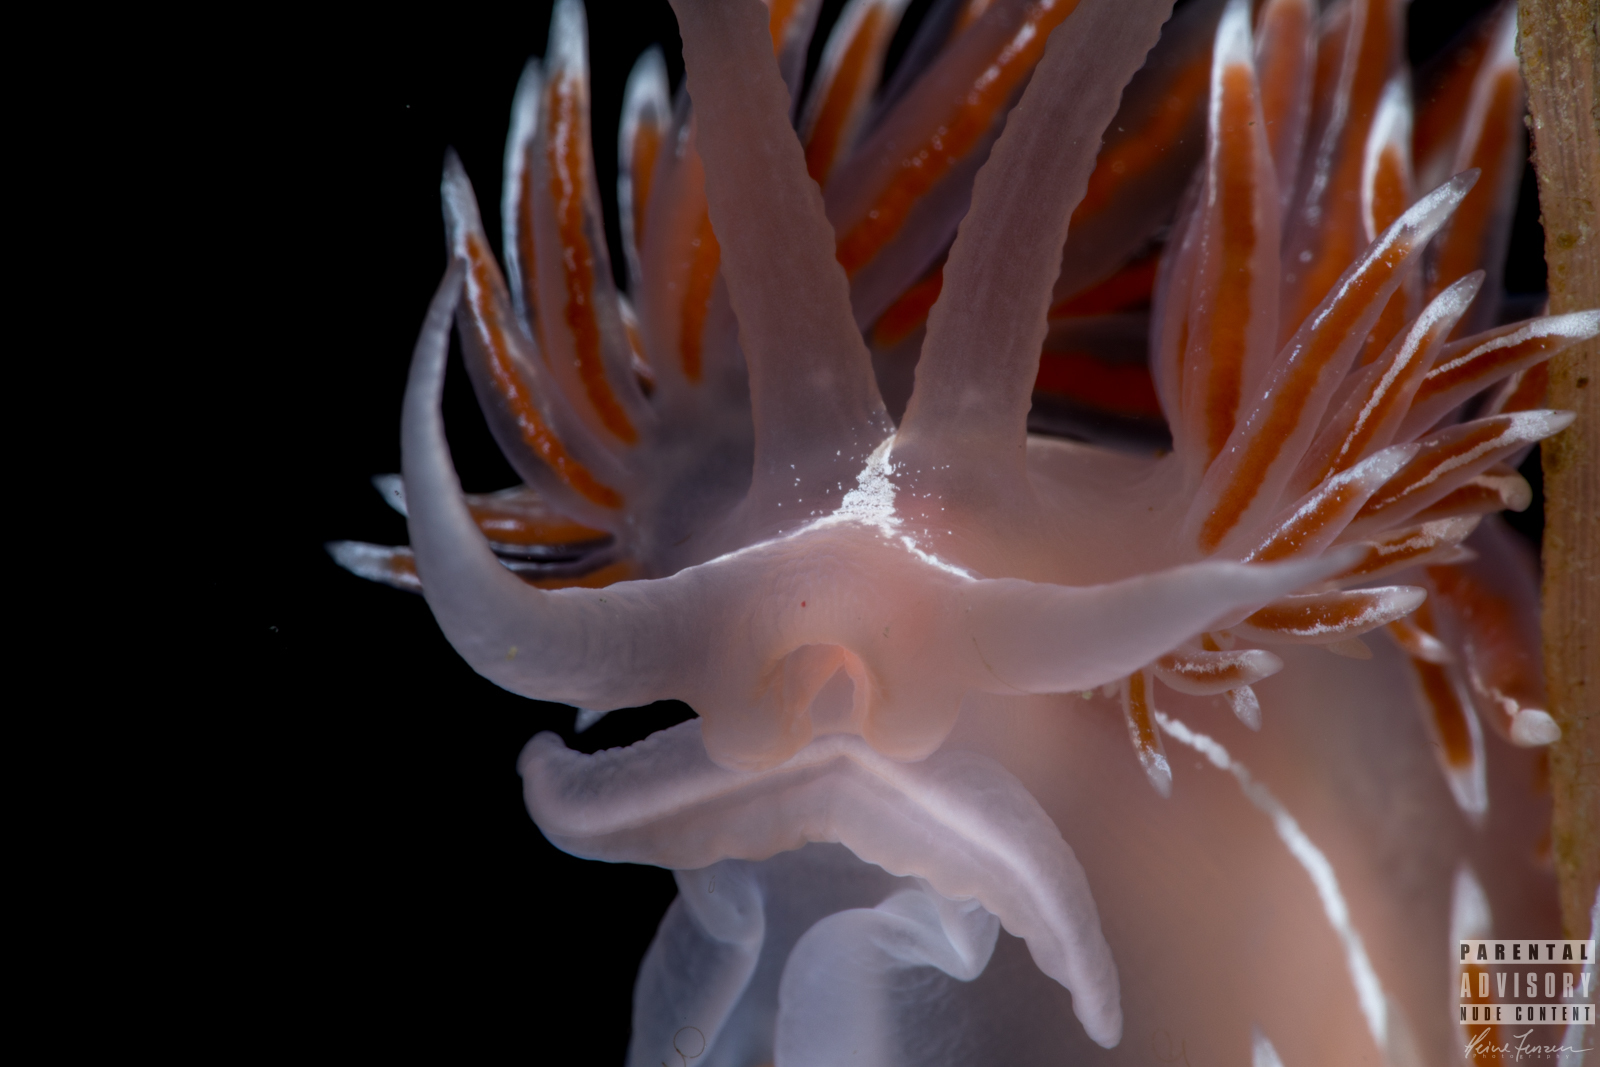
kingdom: Animalia
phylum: Mollusca
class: Gastropoda
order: Nudibranchia
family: Coryphellidae
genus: Coryphella
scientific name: Coryphella lineata
